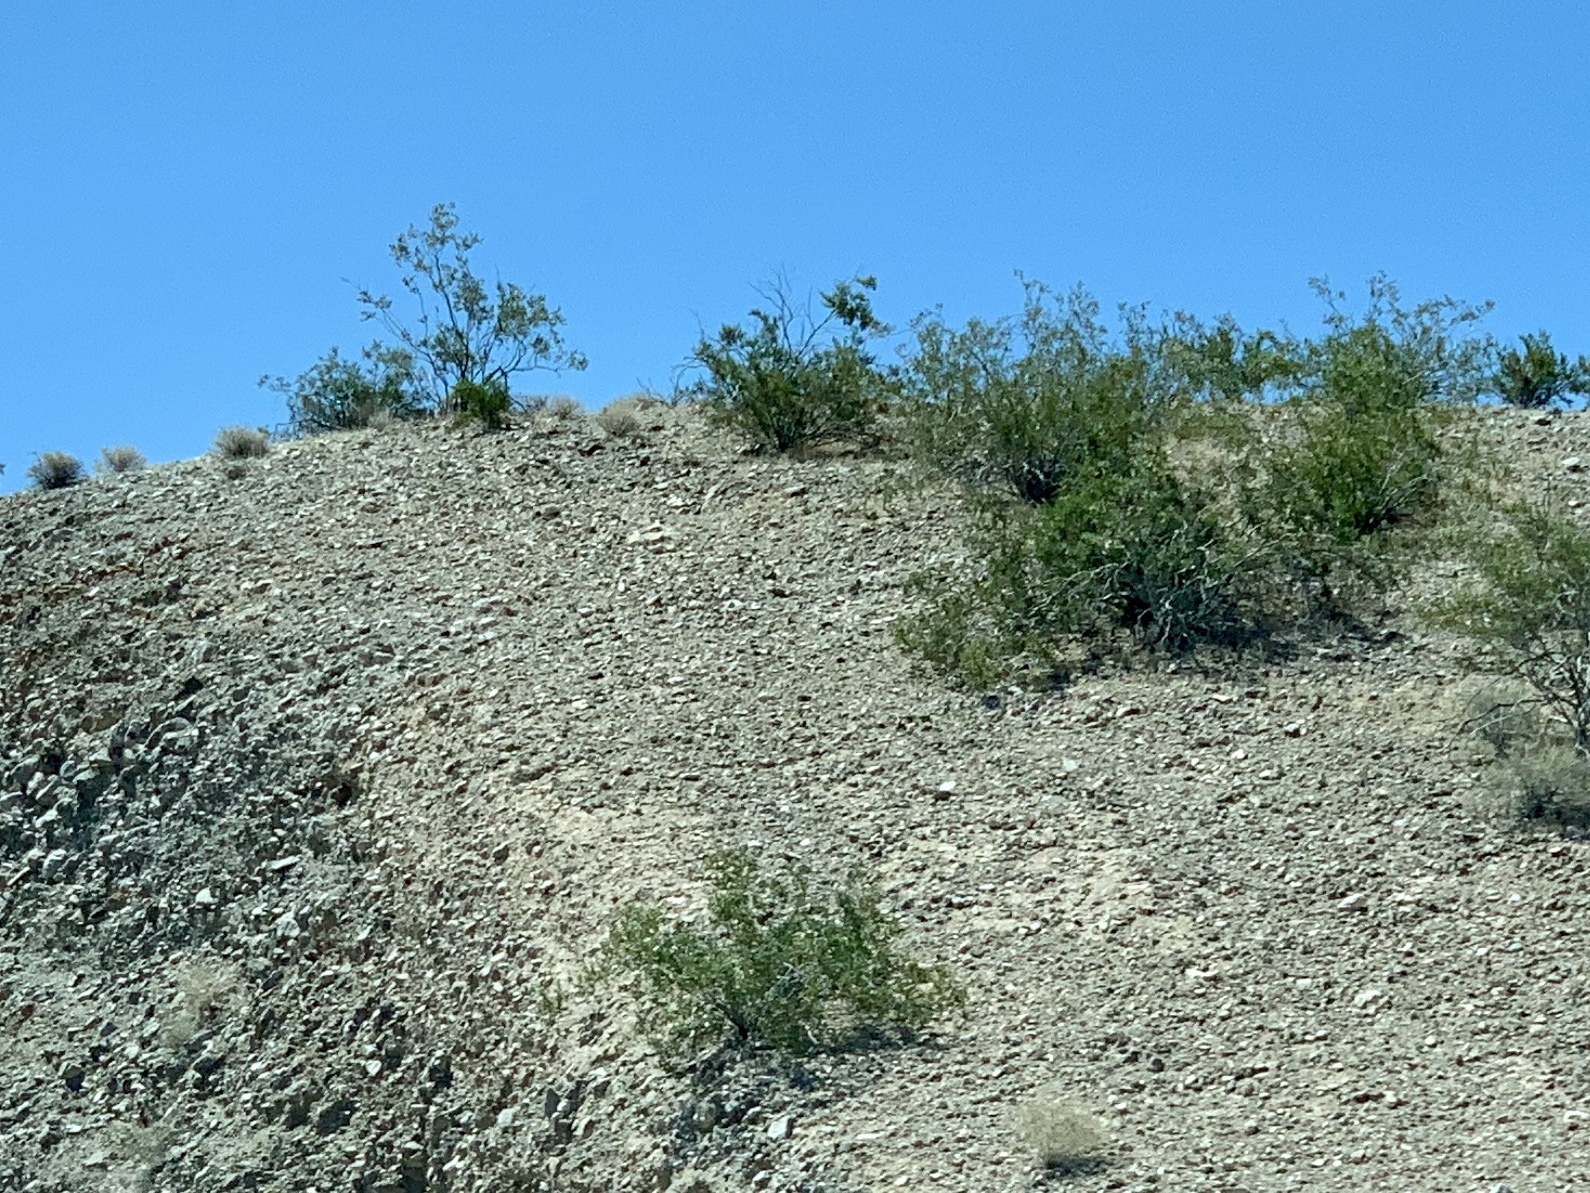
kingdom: Plantae
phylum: Tracheophyta
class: Magnoliopsida
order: Zygophyllales
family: Zygophyllaceae
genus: Larrea
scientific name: Larrea tridentata
